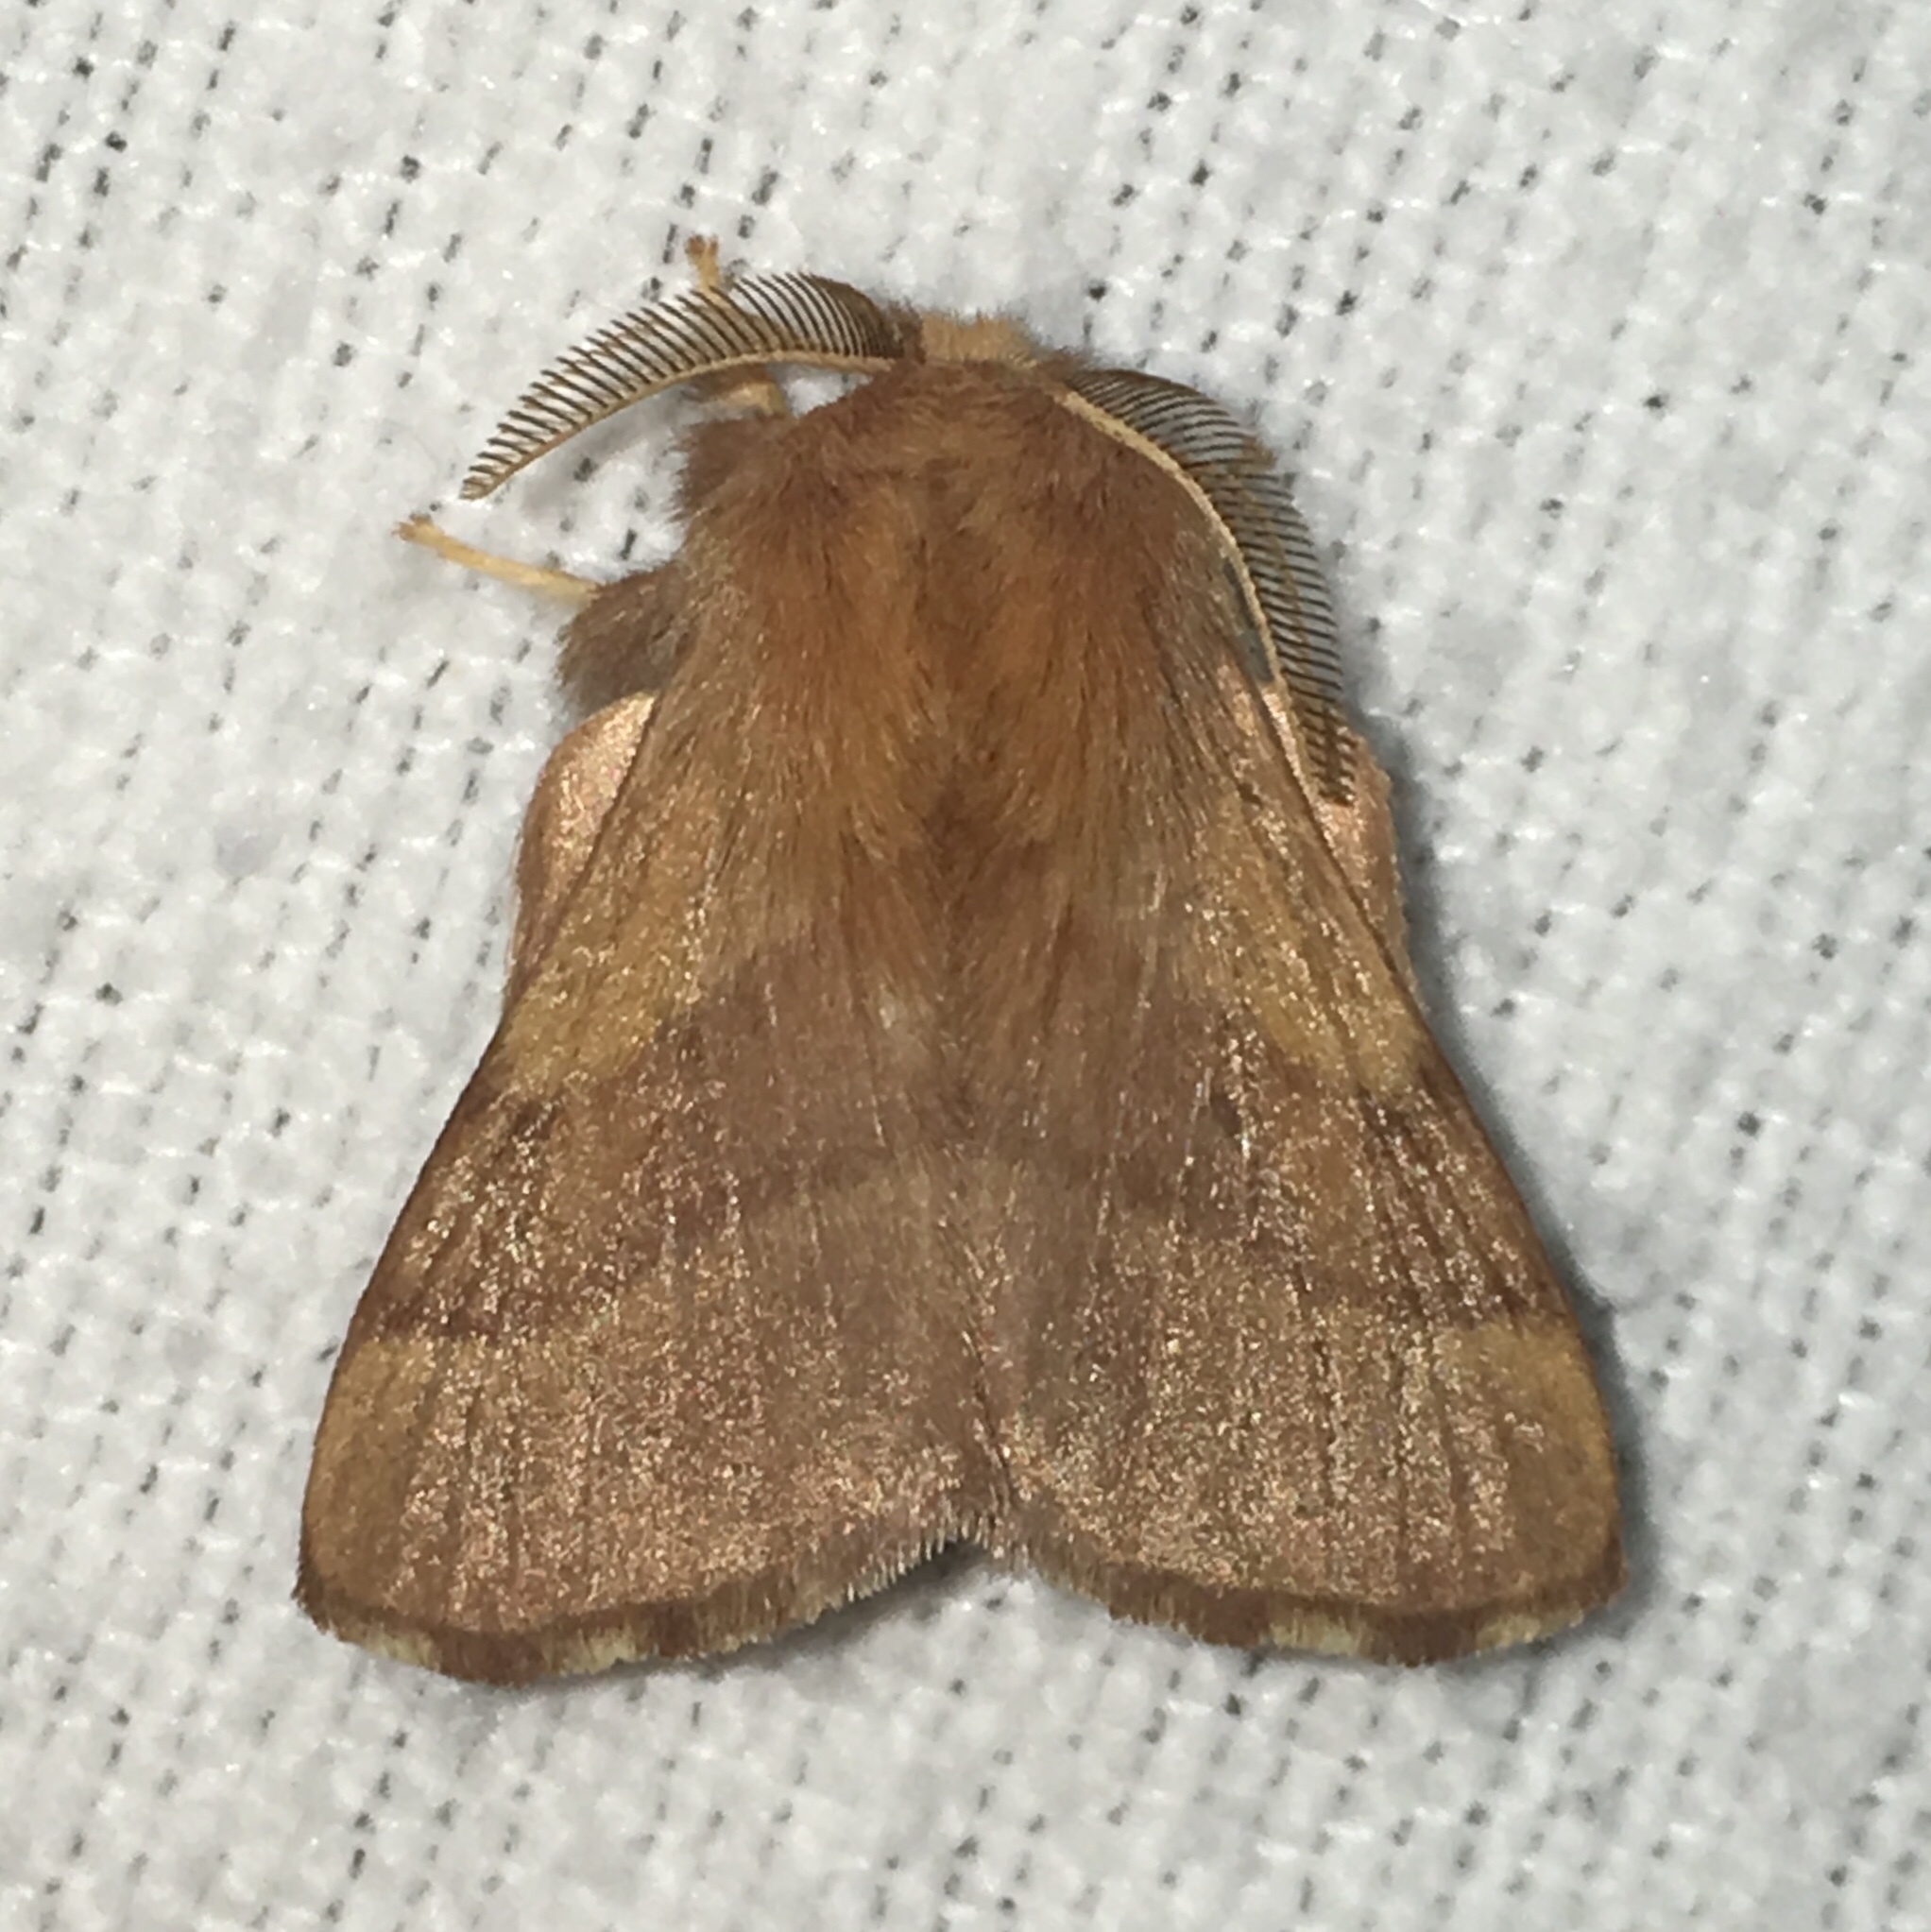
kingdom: Animalia
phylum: Arthropoda
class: Insecta
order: Lepidoptera
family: Lasiocampidae
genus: Malacosoma
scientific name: Malacosoma disstria
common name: Forest tent caterpillar
